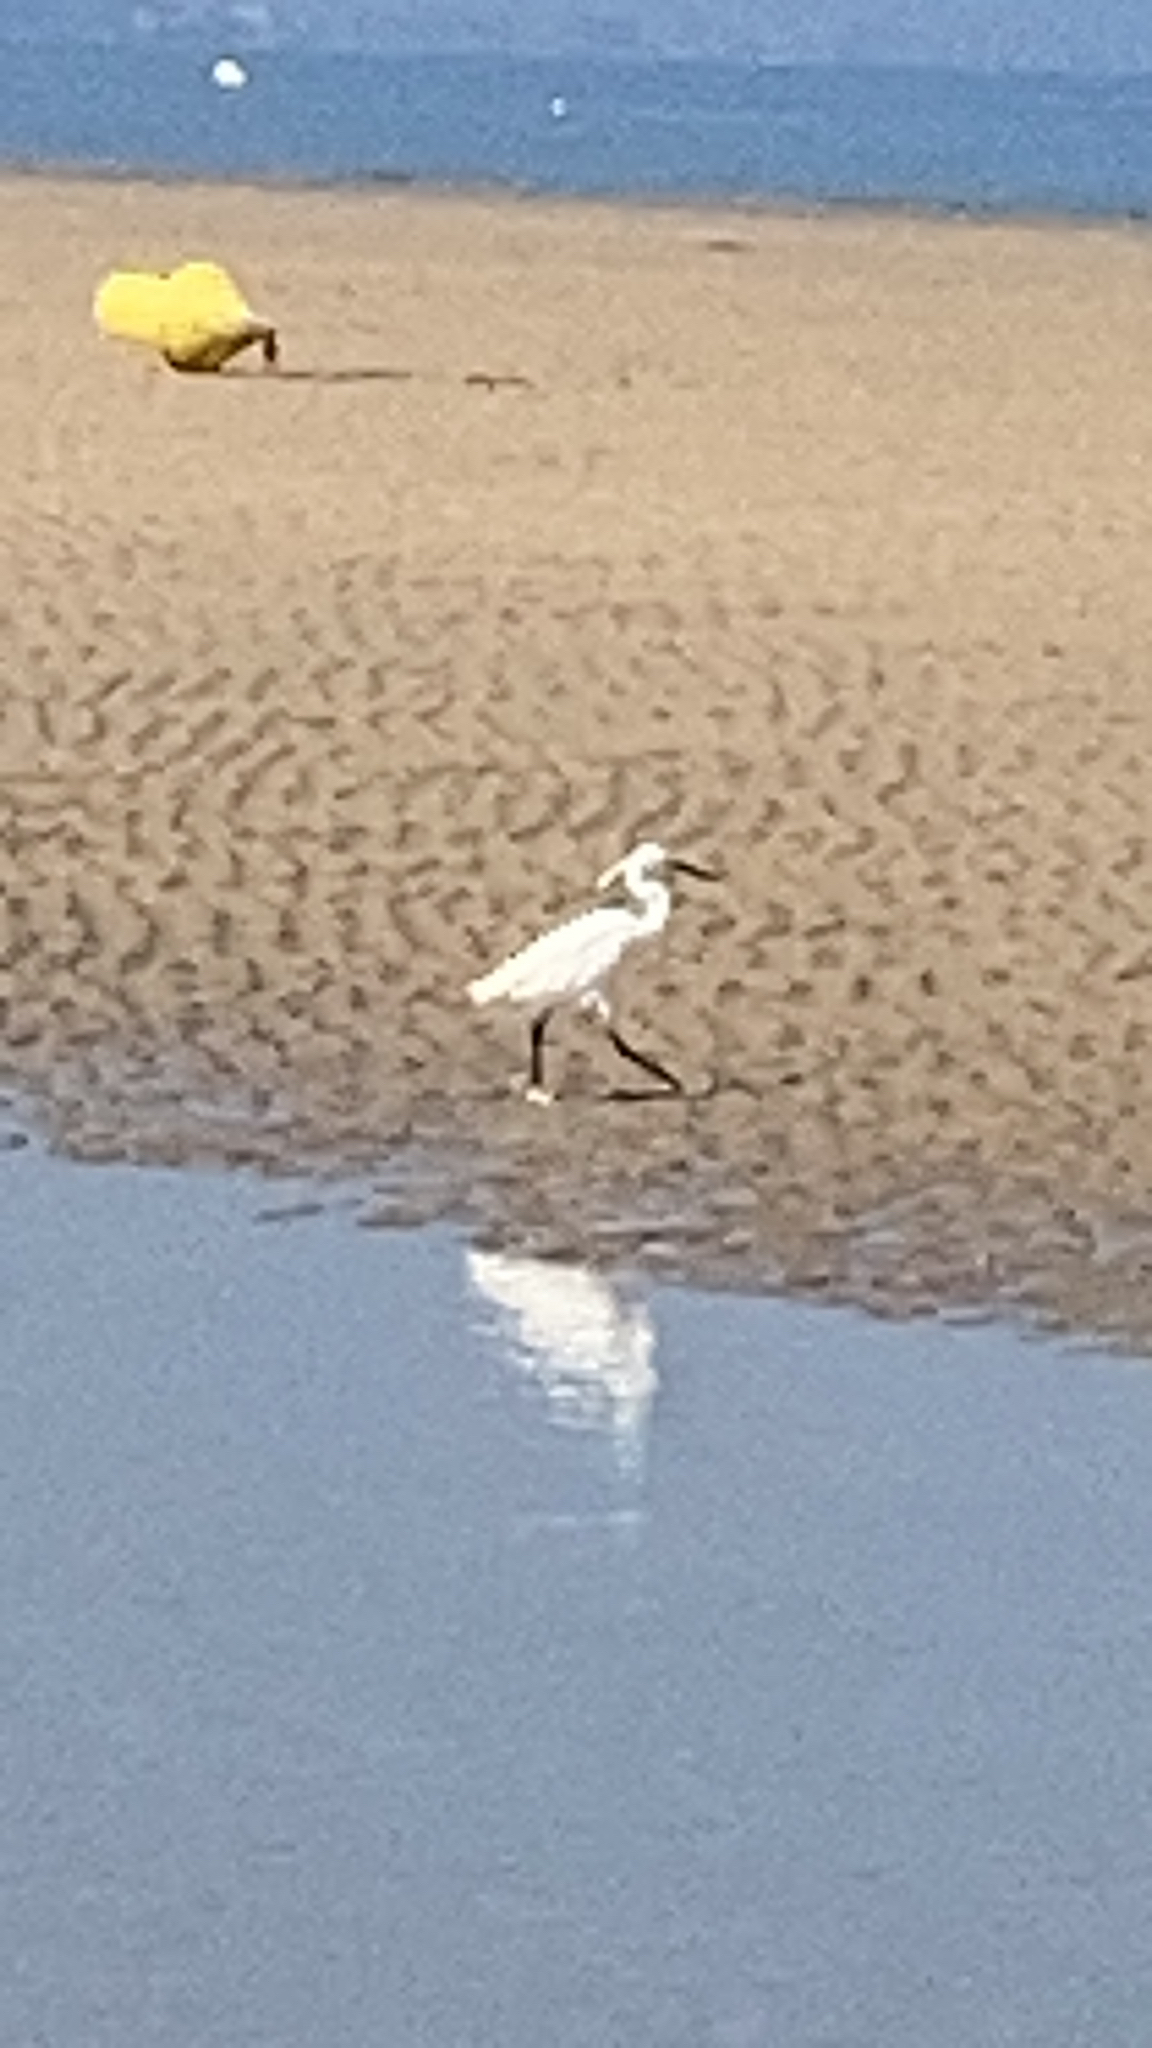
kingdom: Animalia
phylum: Chordata
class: Aves
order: Pelecaniformes
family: Ardeidae
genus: Egretta
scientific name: Egretta garzetta
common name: Little egret
